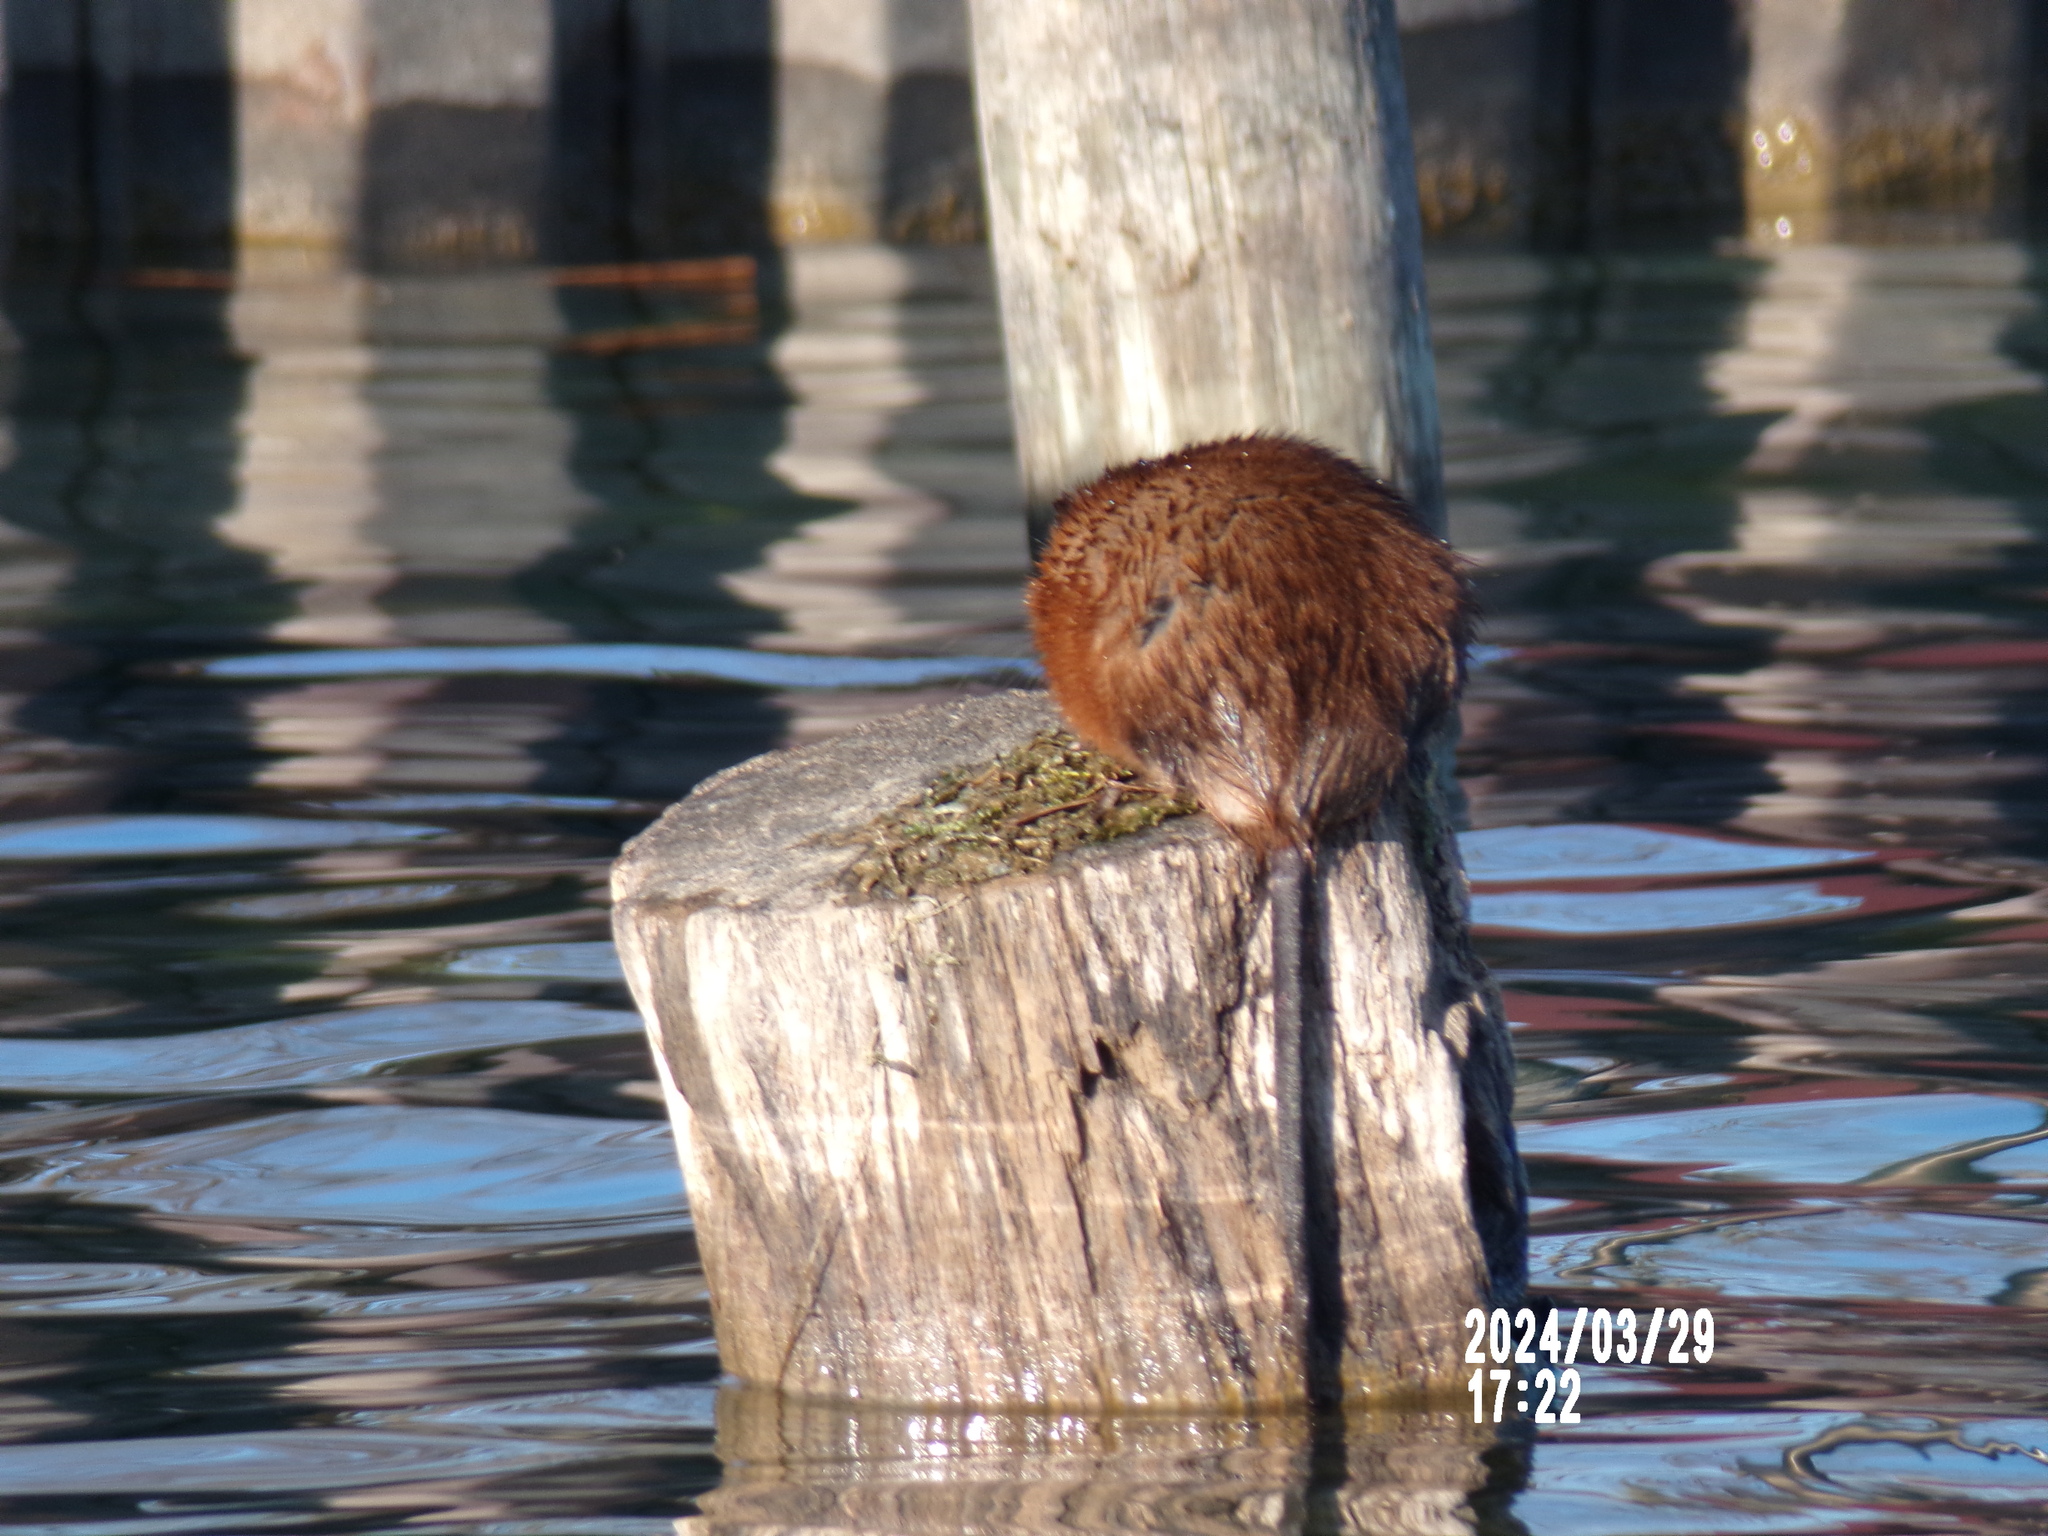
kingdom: Animalia
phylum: Chordata
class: Mammalia
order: Rodentia
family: Cricetidae
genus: Ondatra
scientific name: Ondatra zibethicus
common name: Muskrat
